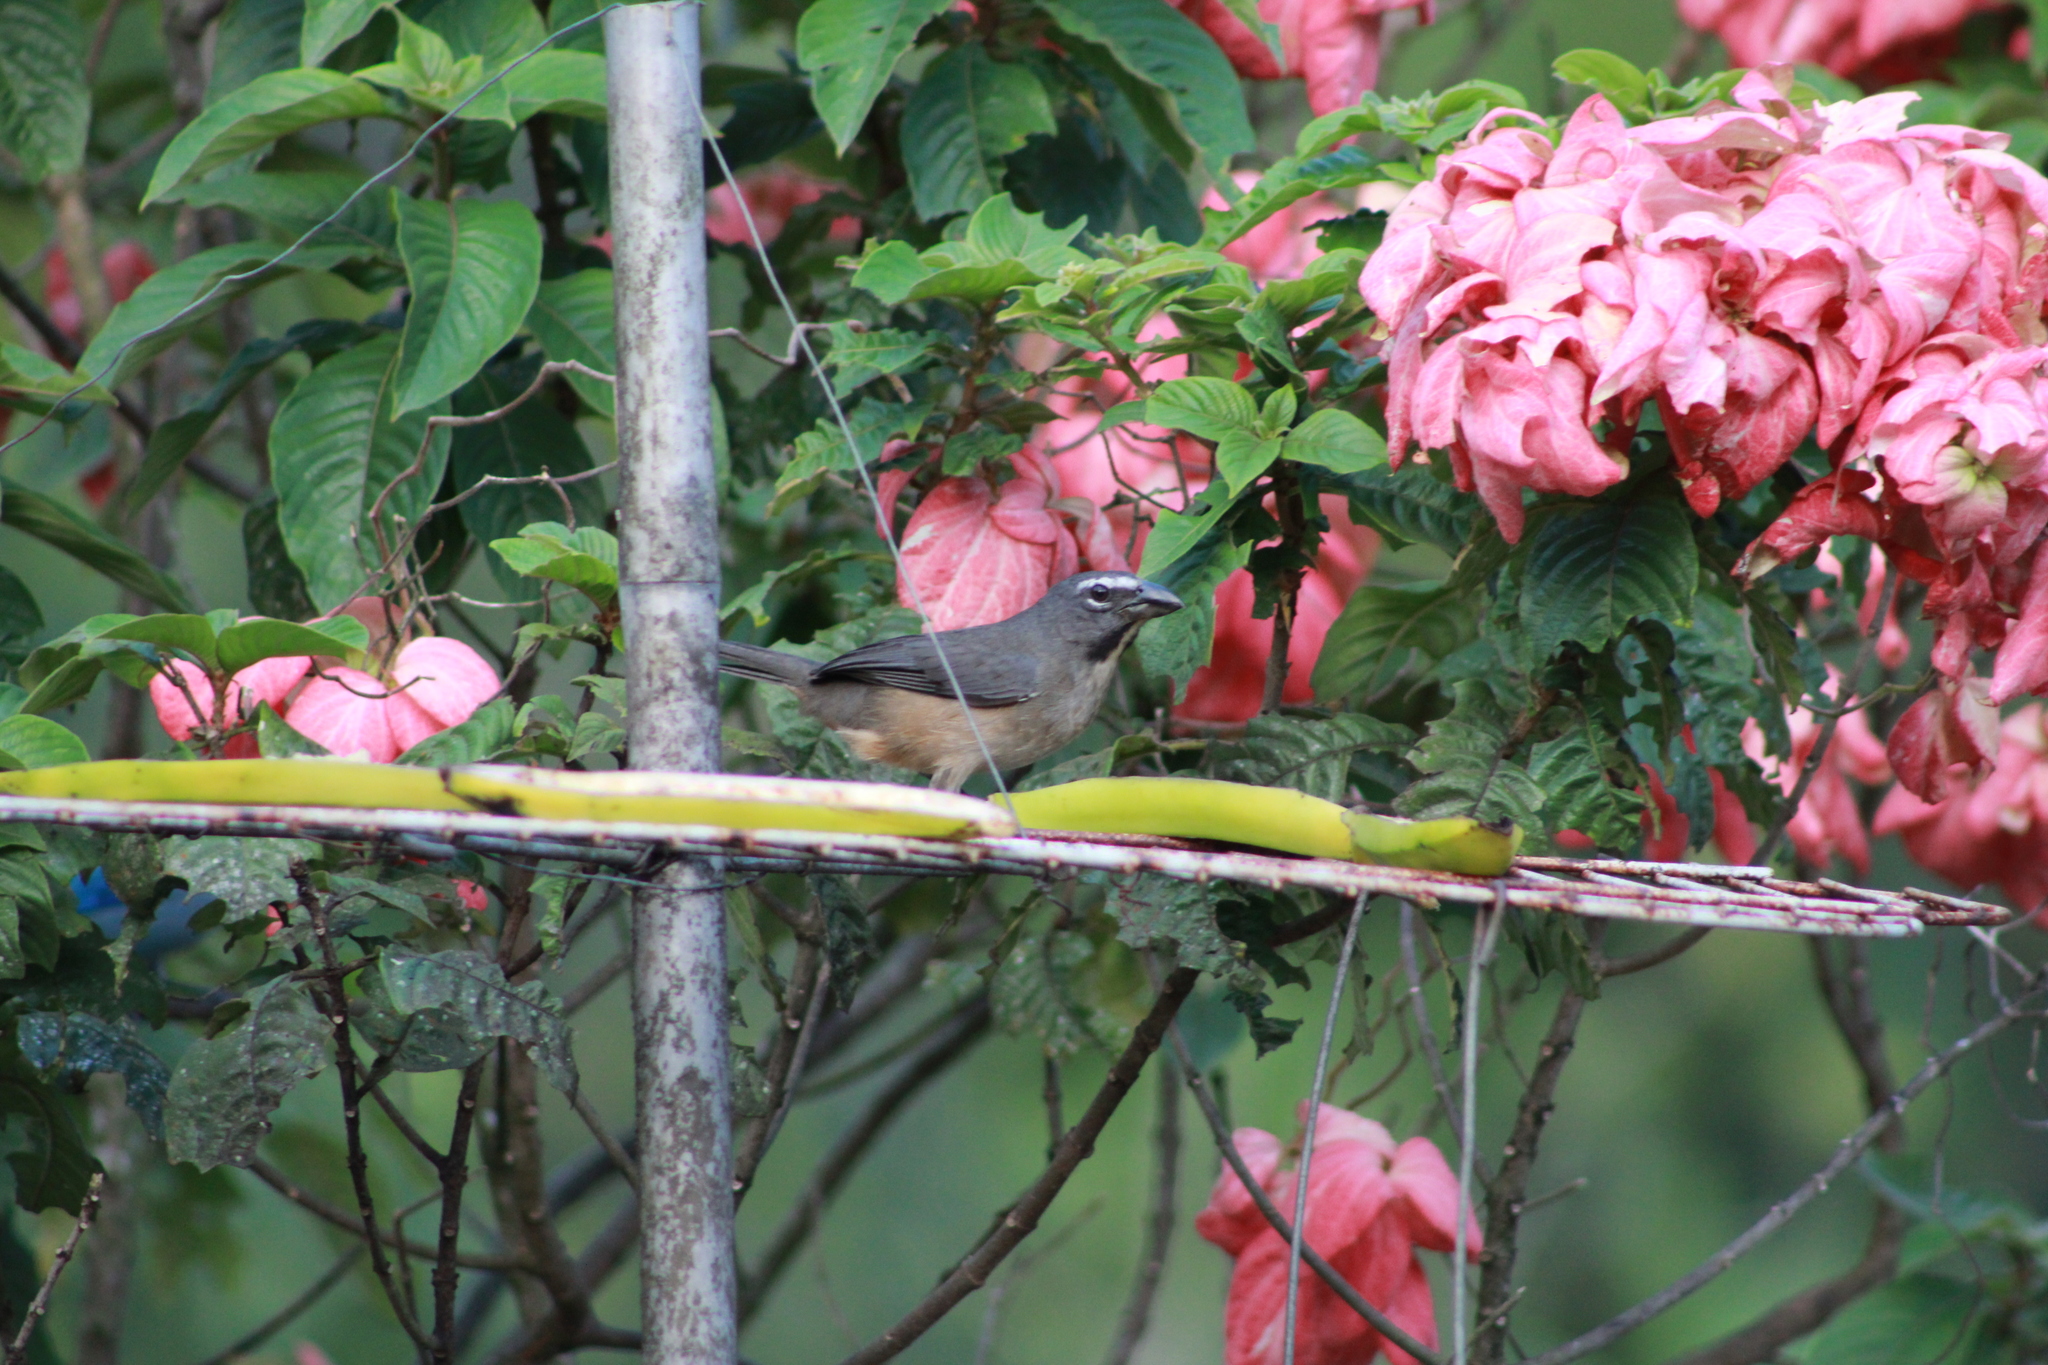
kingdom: Animalia
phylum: Chordata
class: Aves
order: Passeriformes
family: Thraupidae
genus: Saltator
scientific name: Saltator olivascens
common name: Caribbean grey saltator
